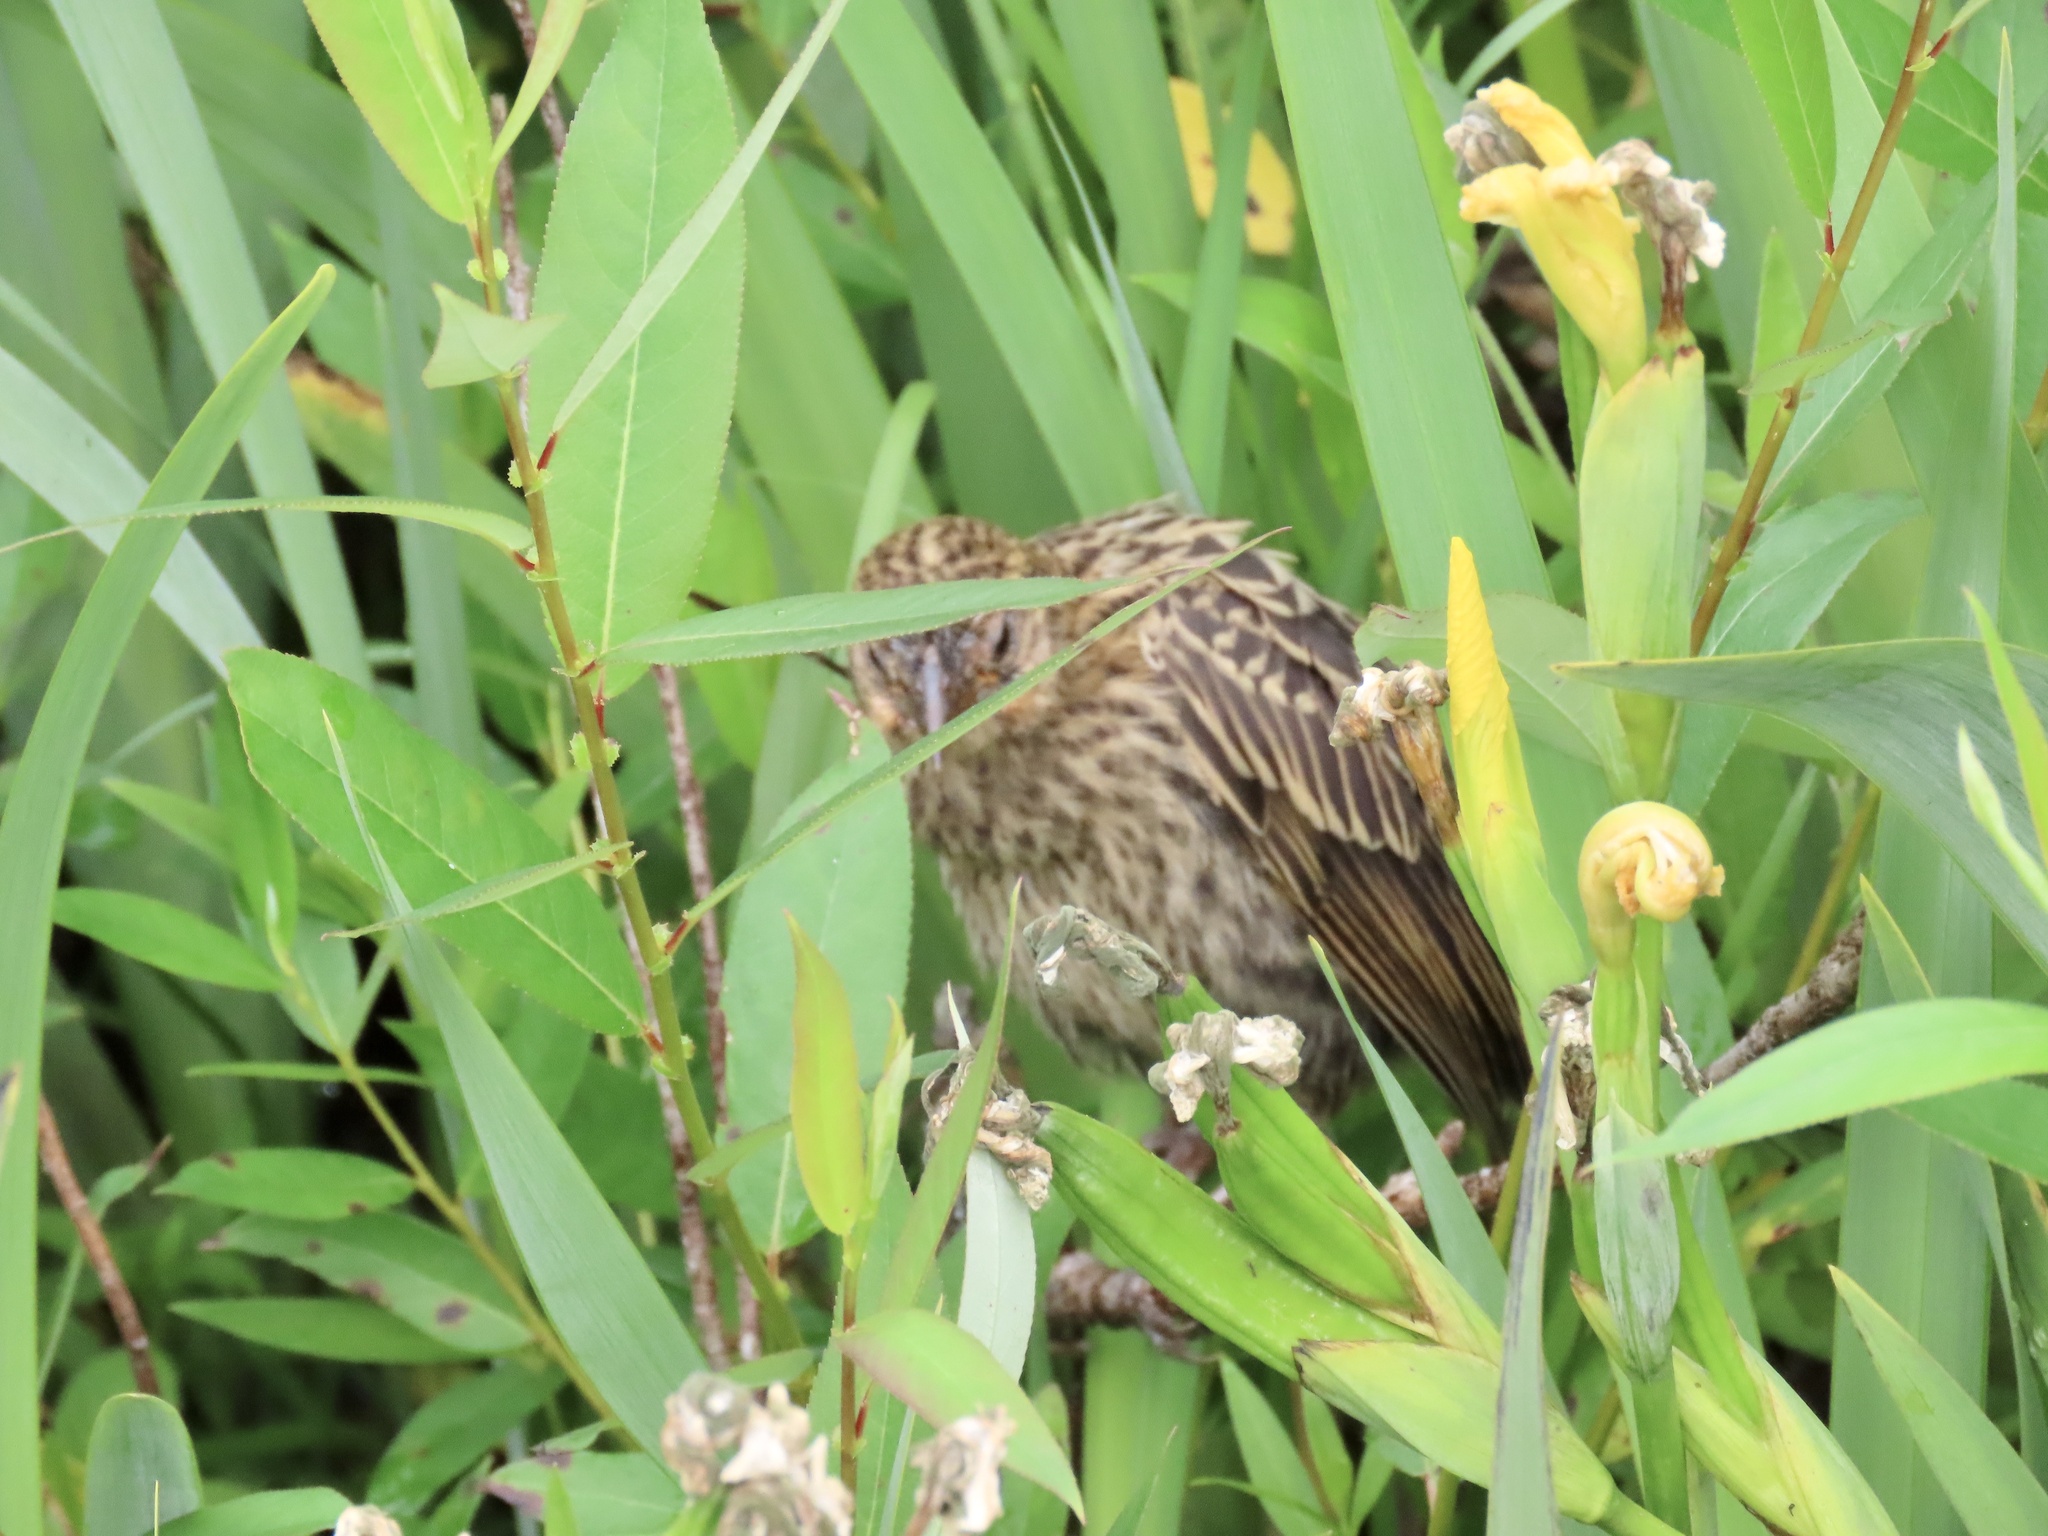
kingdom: Animalia
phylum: Chordata
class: Aves
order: Passeriformes
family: Icteridae
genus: Agelaius
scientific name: Agelaius phoeniceus
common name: Red-winged blackbird
